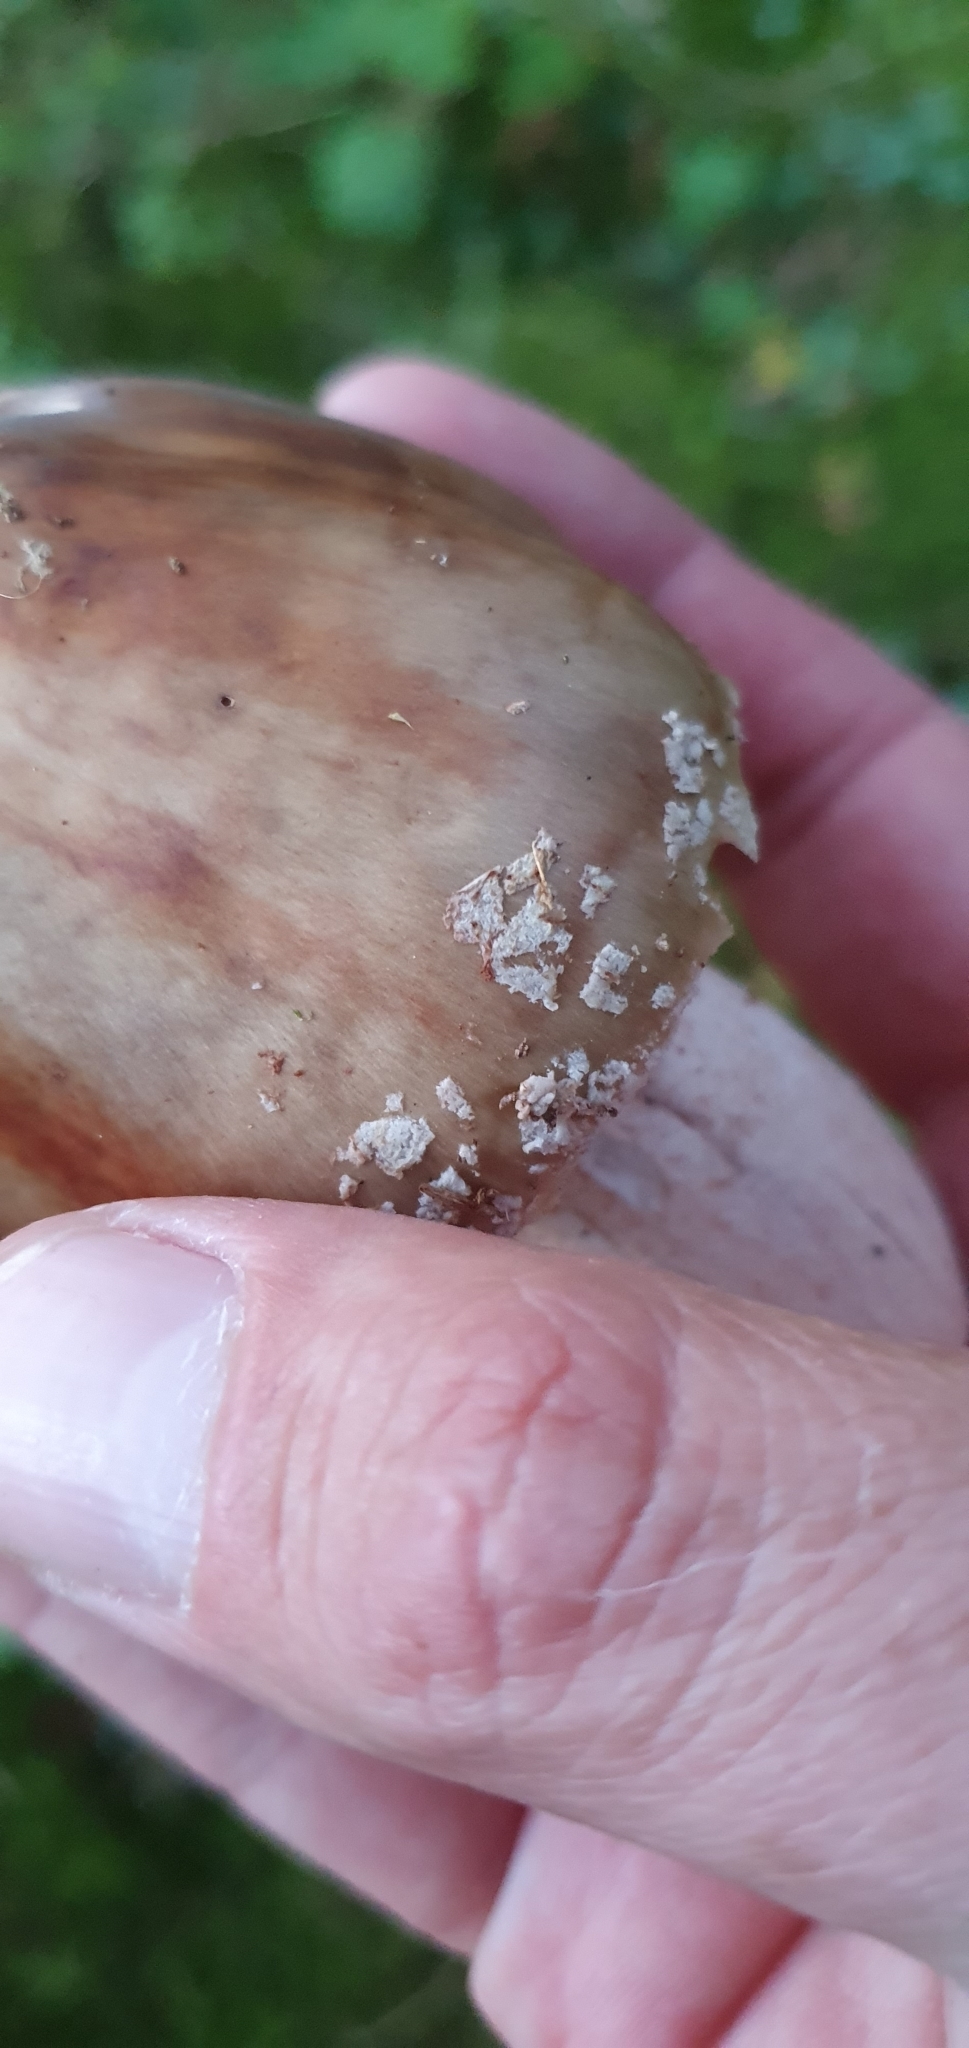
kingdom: Fungi
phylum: Basidiomycota
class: Agaricomycetes
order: Agaricales
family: Amanitaceae
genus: Amanita
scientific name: Amanita rubescens
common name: Blusher
